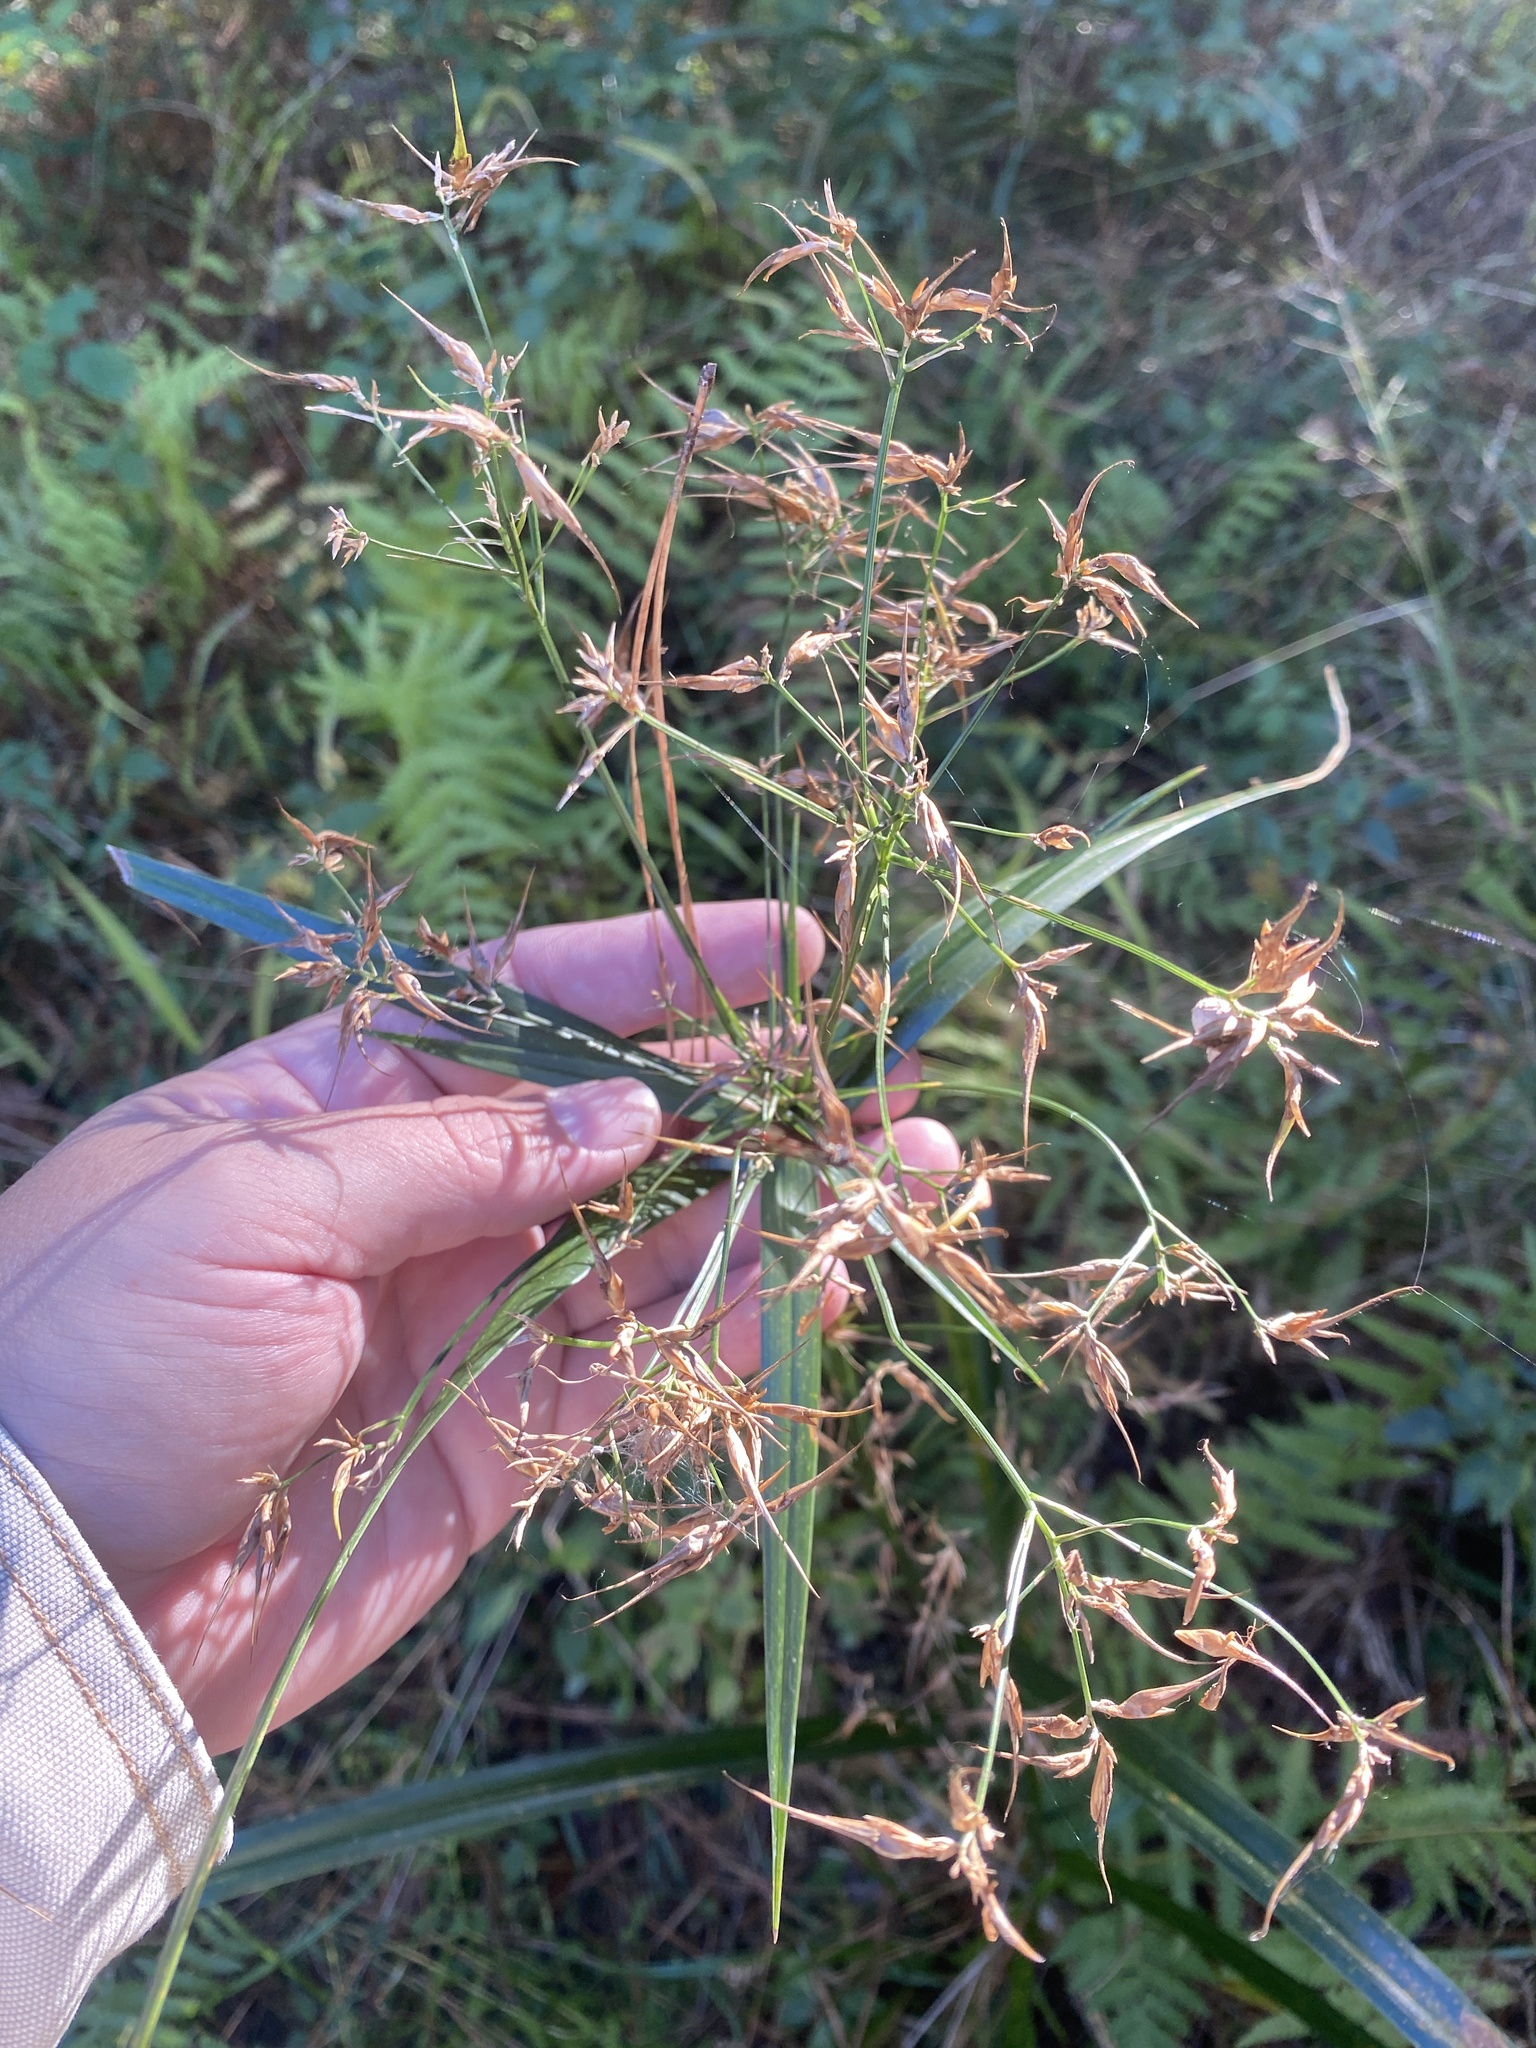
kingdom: Plantae
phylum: Tracheophyta
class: Liliopsida
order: Poales
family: Cyperaceae
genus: Rhynchospora
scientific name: Rhynchospora corniculata
